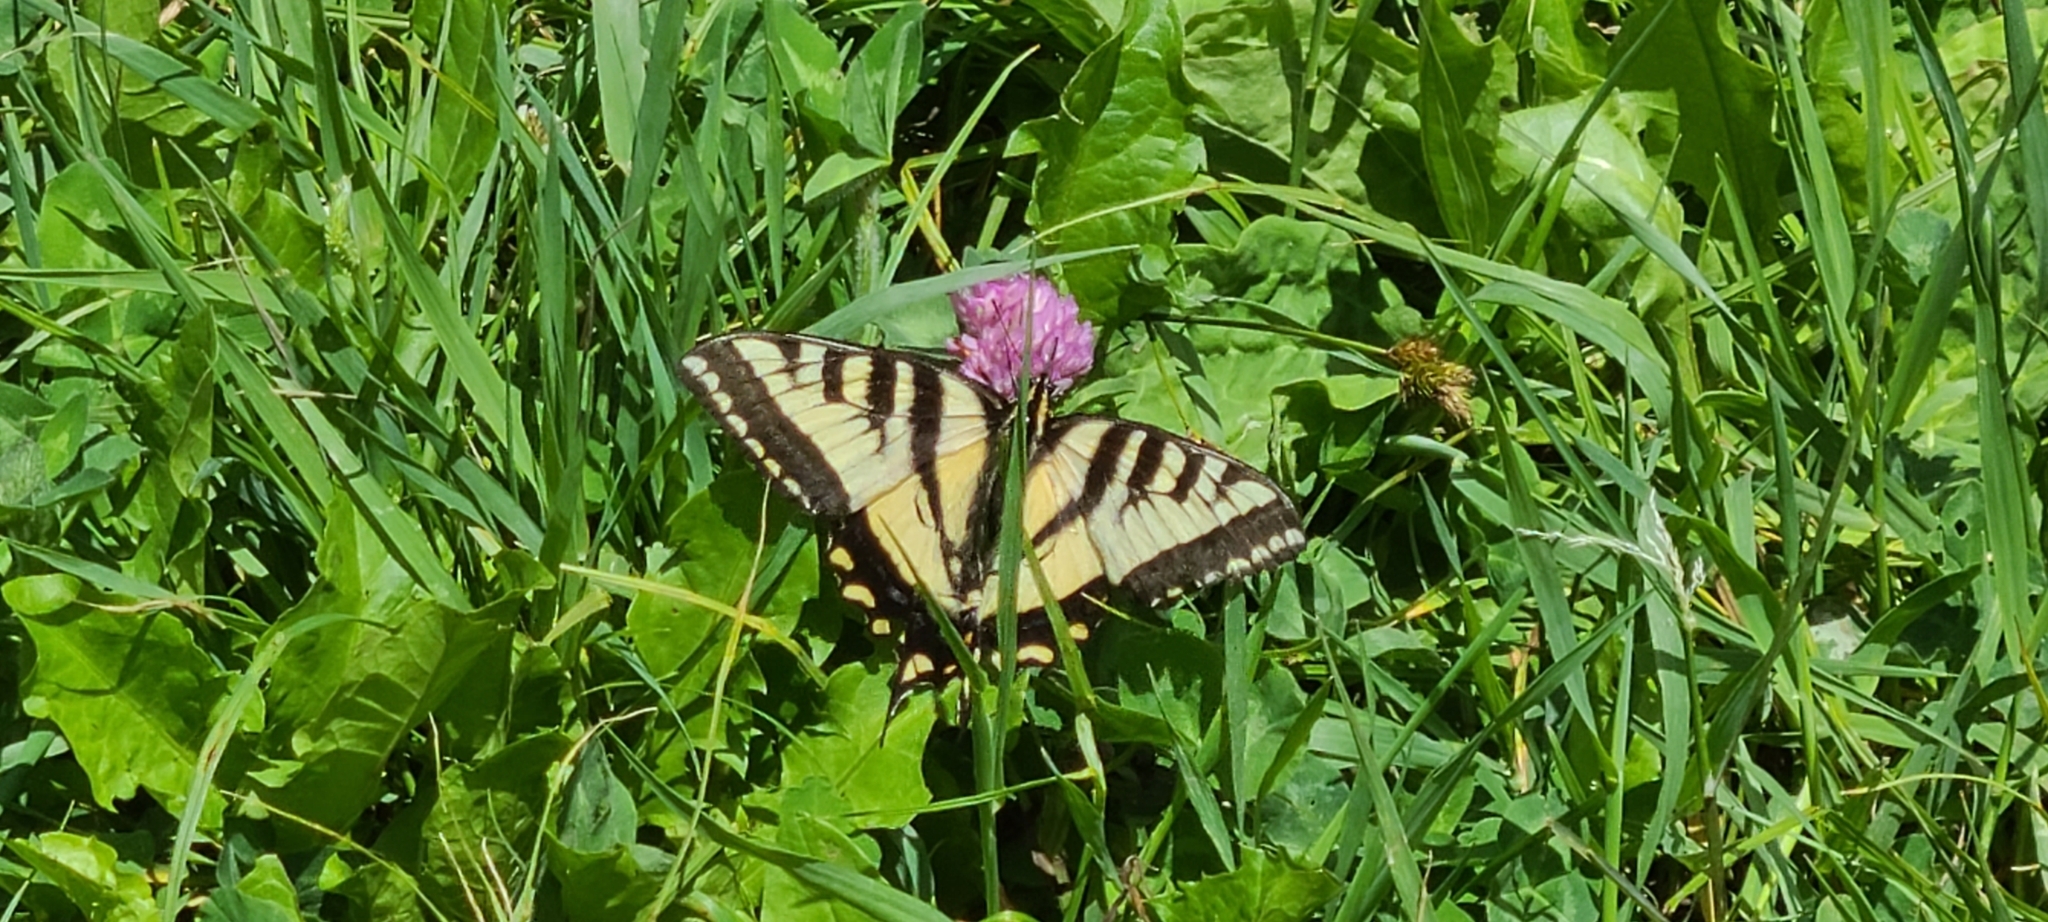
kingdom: Animalia
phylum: Arthropoda
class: Insecta
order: Lepidoptera
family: Papilionidae
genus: Papilio
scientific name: Papilio rutulus
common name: Western tiger swallowtail
